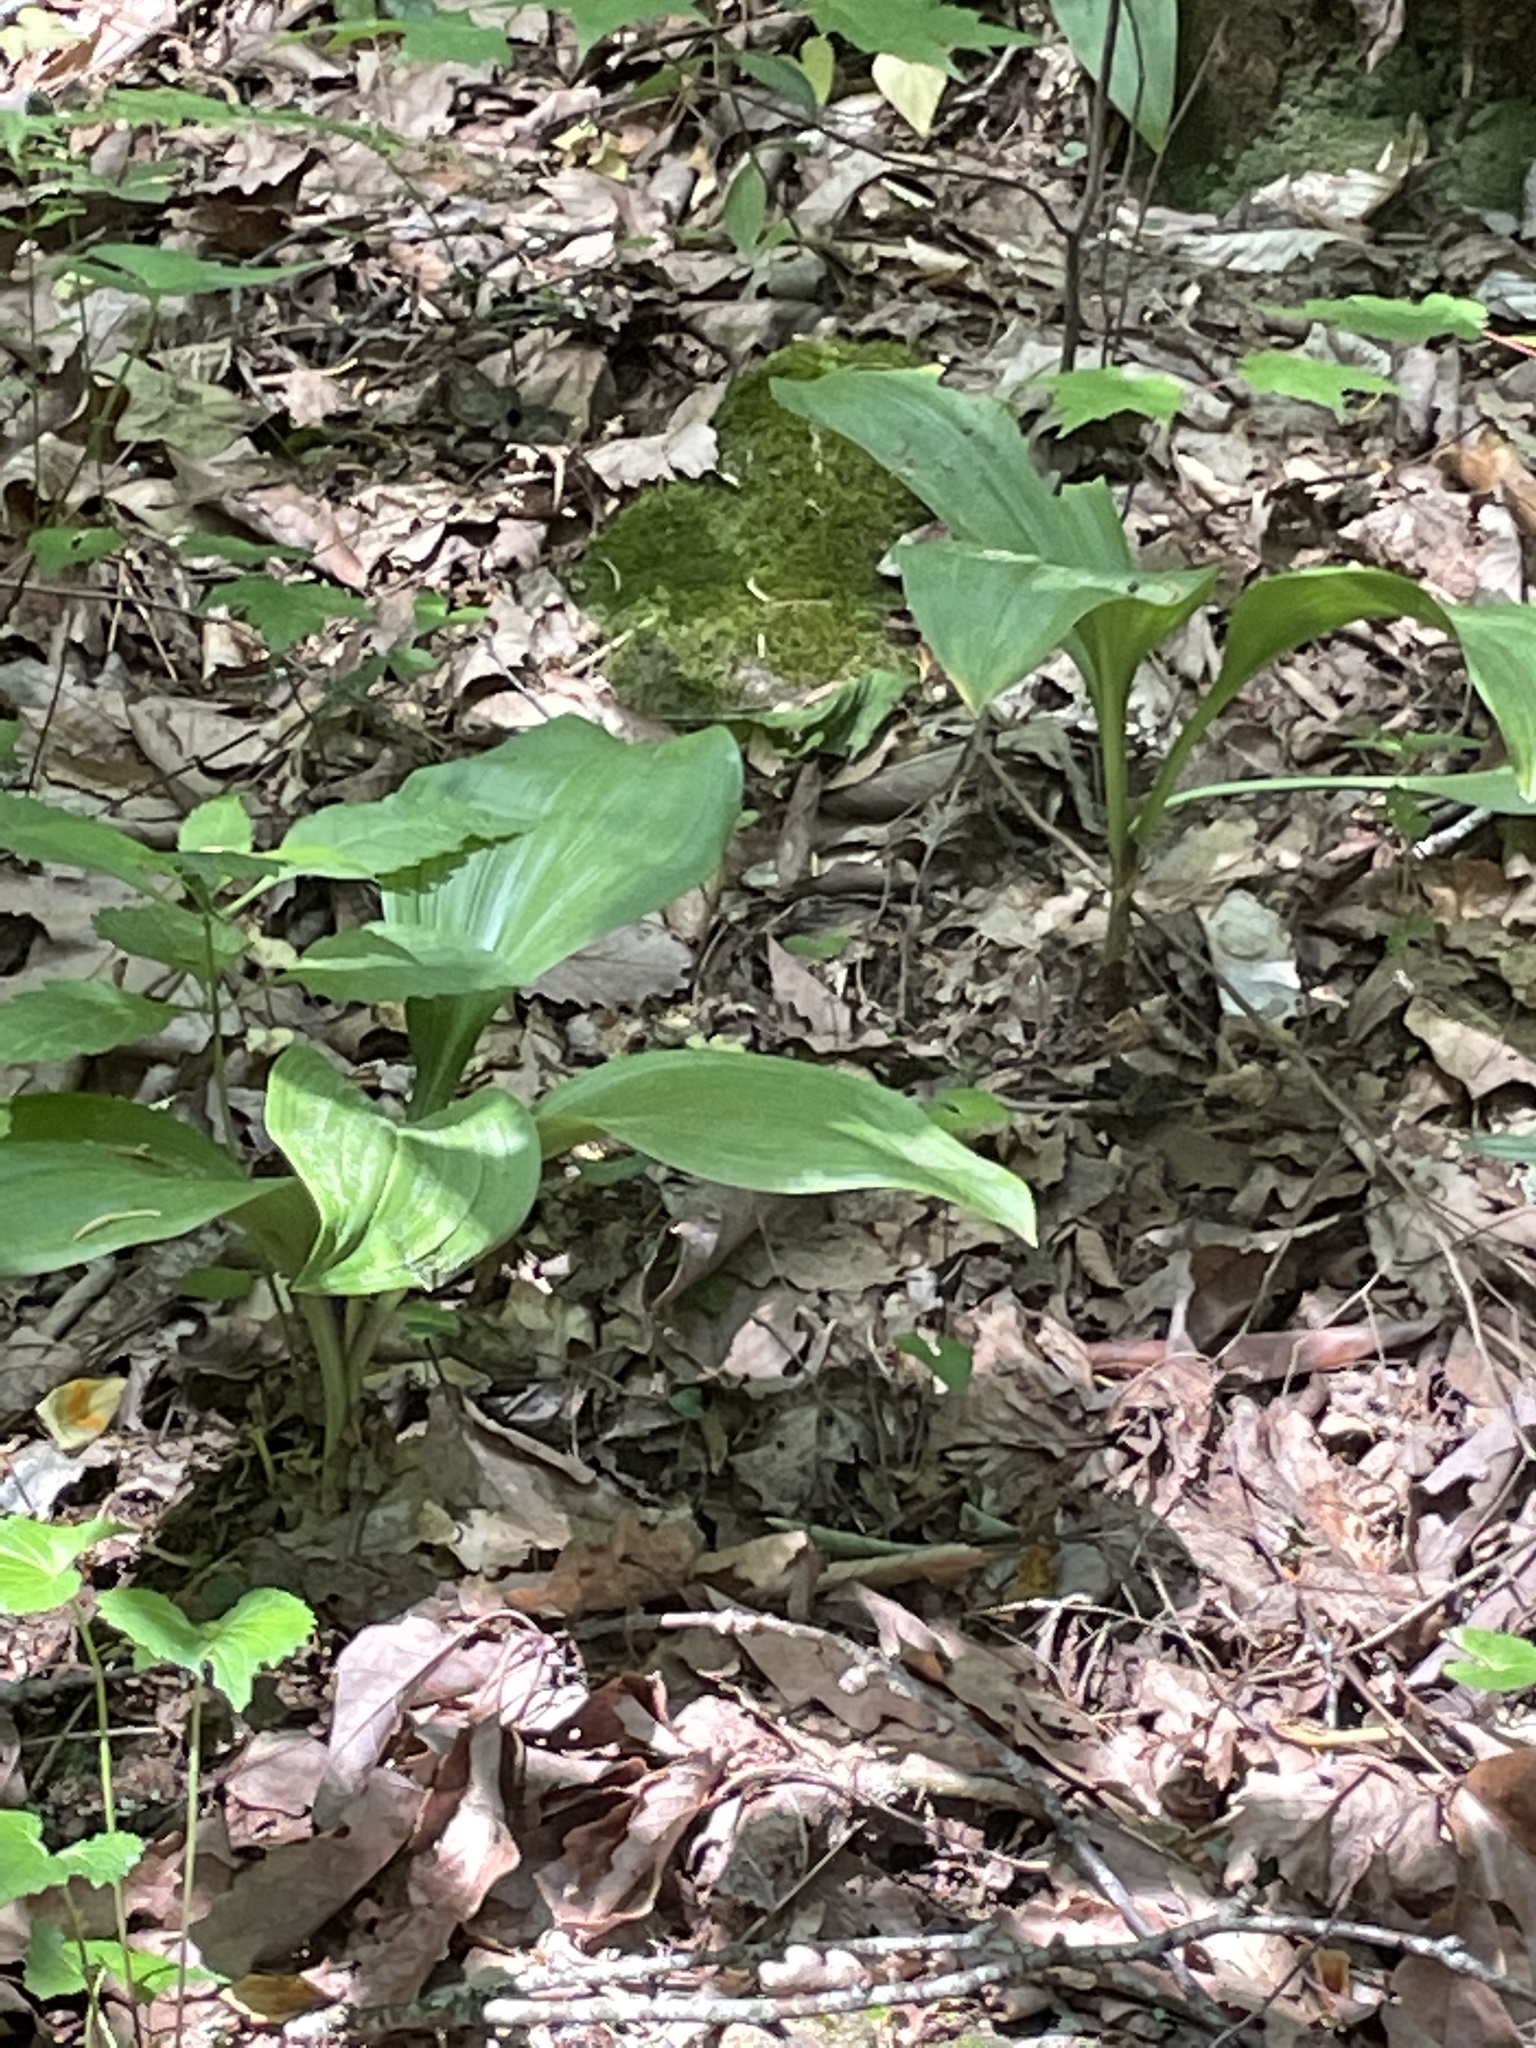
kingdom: Plantae
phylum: Tracheophyta
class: Liliopsida
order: Liliales
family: Melanthiaceae
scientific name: Melanthiaceae
